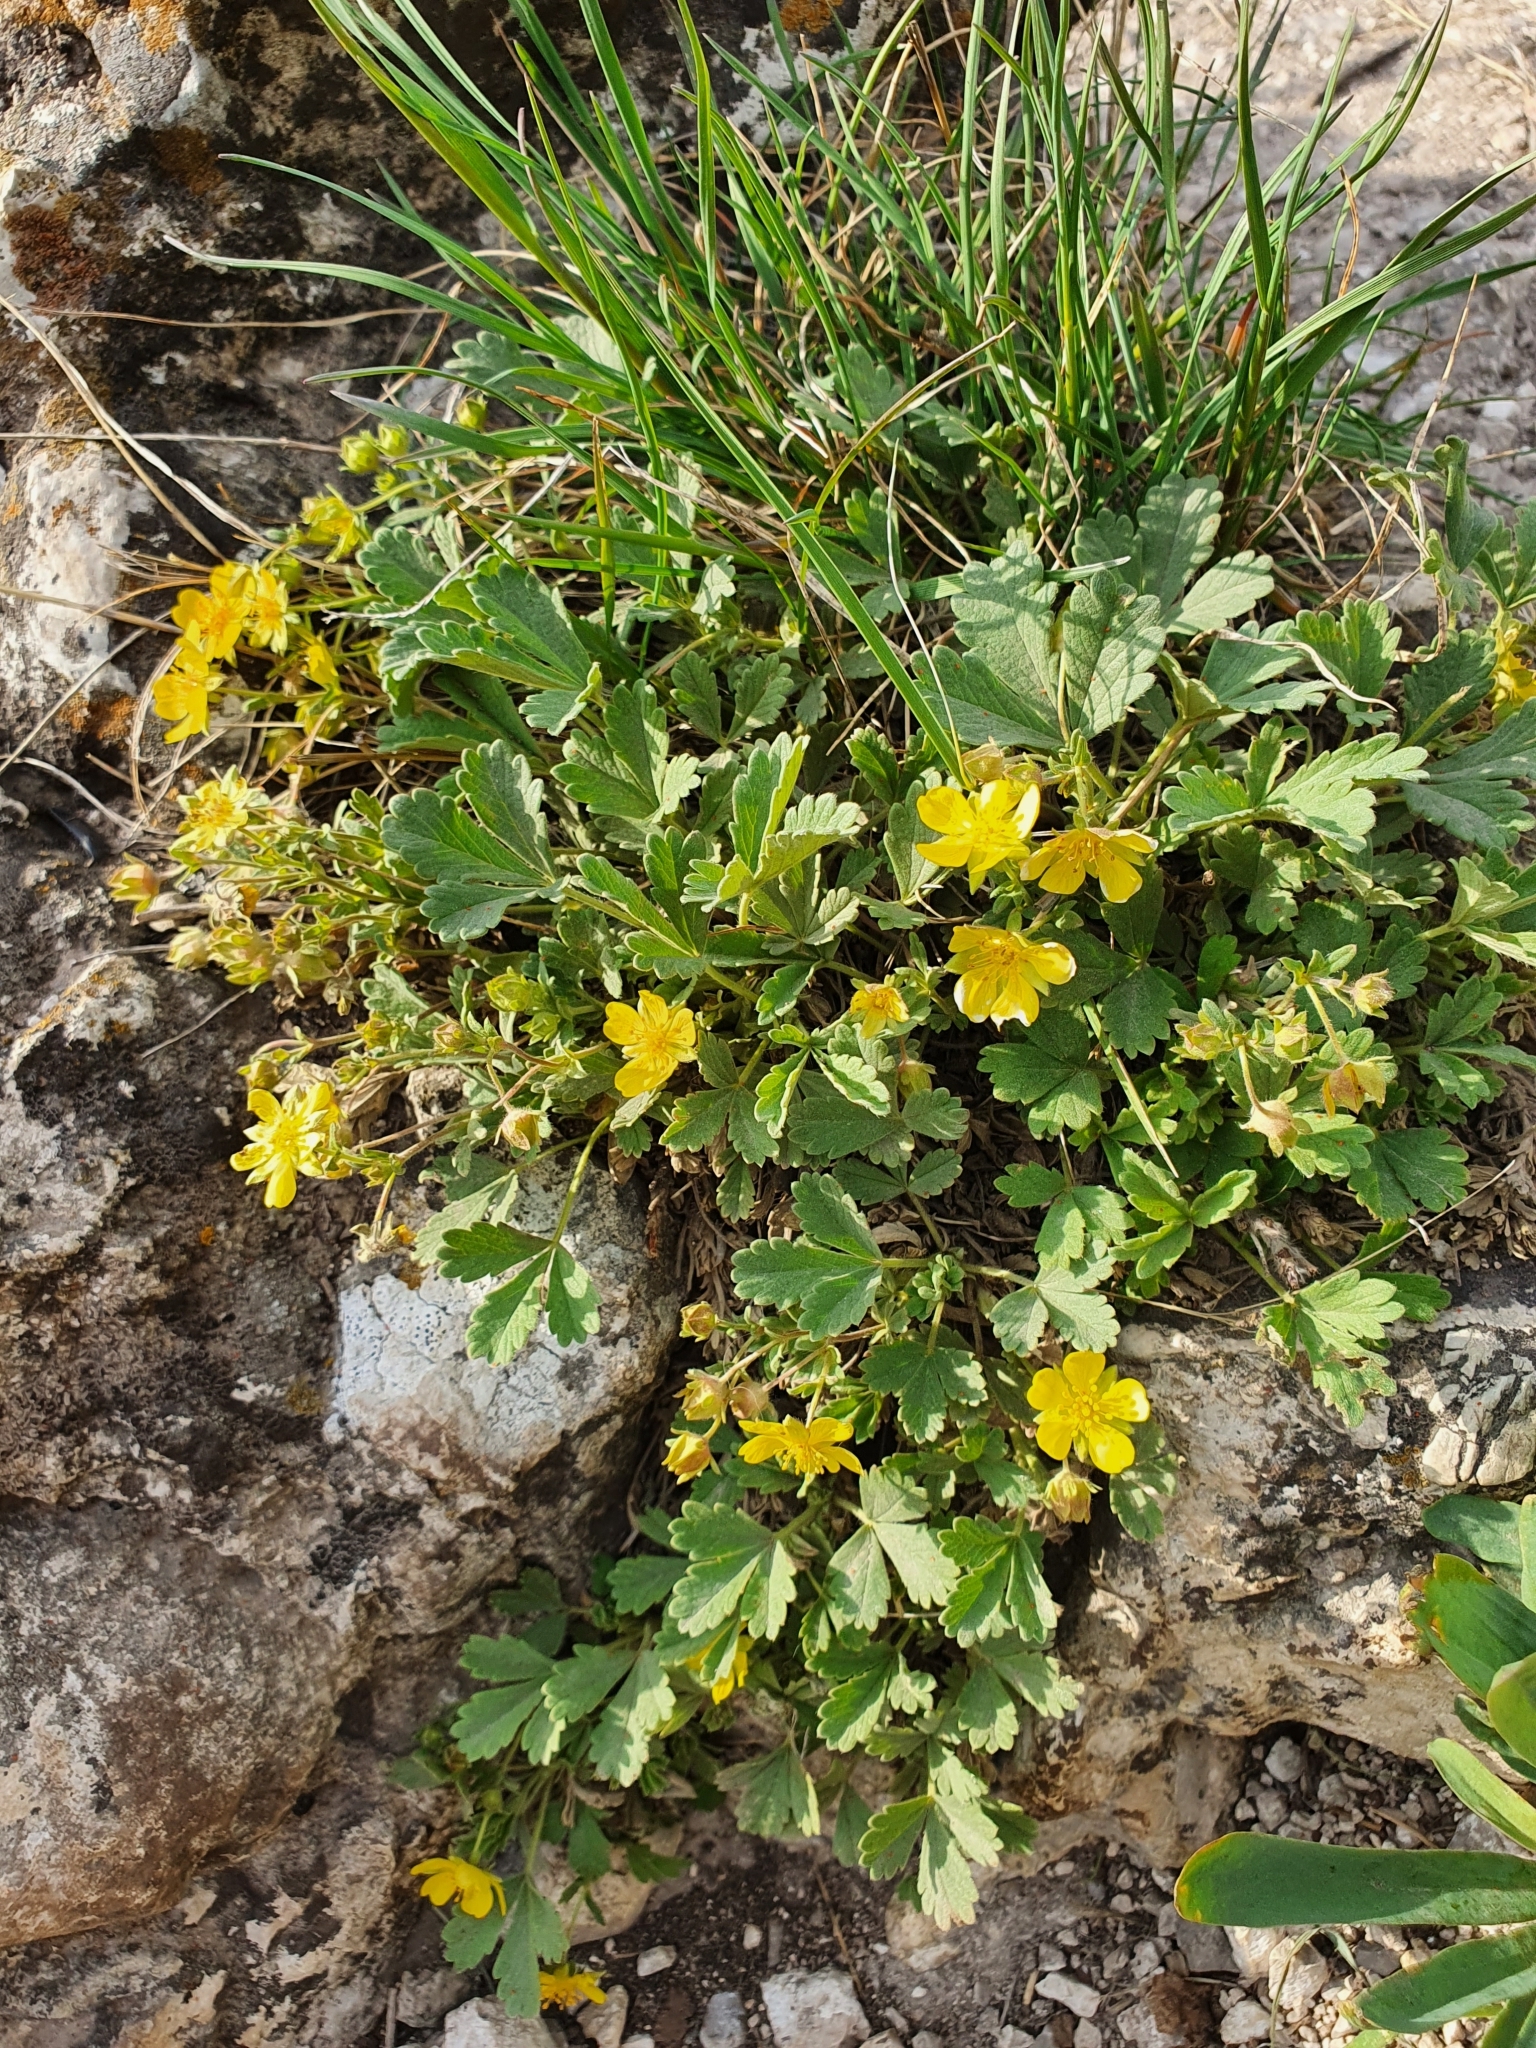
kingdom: Plantae
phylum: Tracheophyta
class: Magnoliopsida
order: Rosales
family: Rosaceae
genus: Potentilla
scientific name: Potentilla incana
